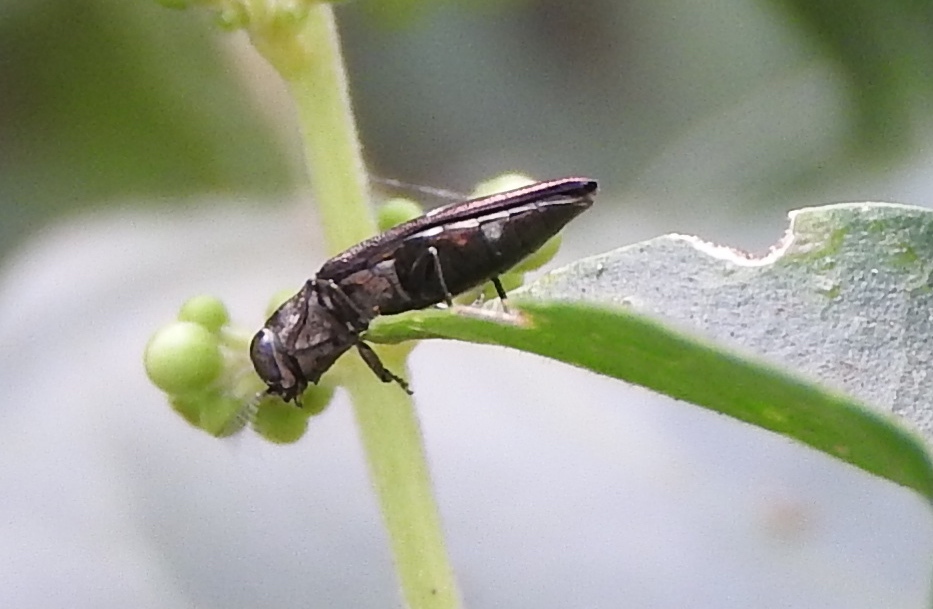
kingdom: Animalia
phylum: Arthropoda
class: Insecta
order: Coleoptera
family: Buprestidae
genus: Agrilus
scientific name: Agrilus
